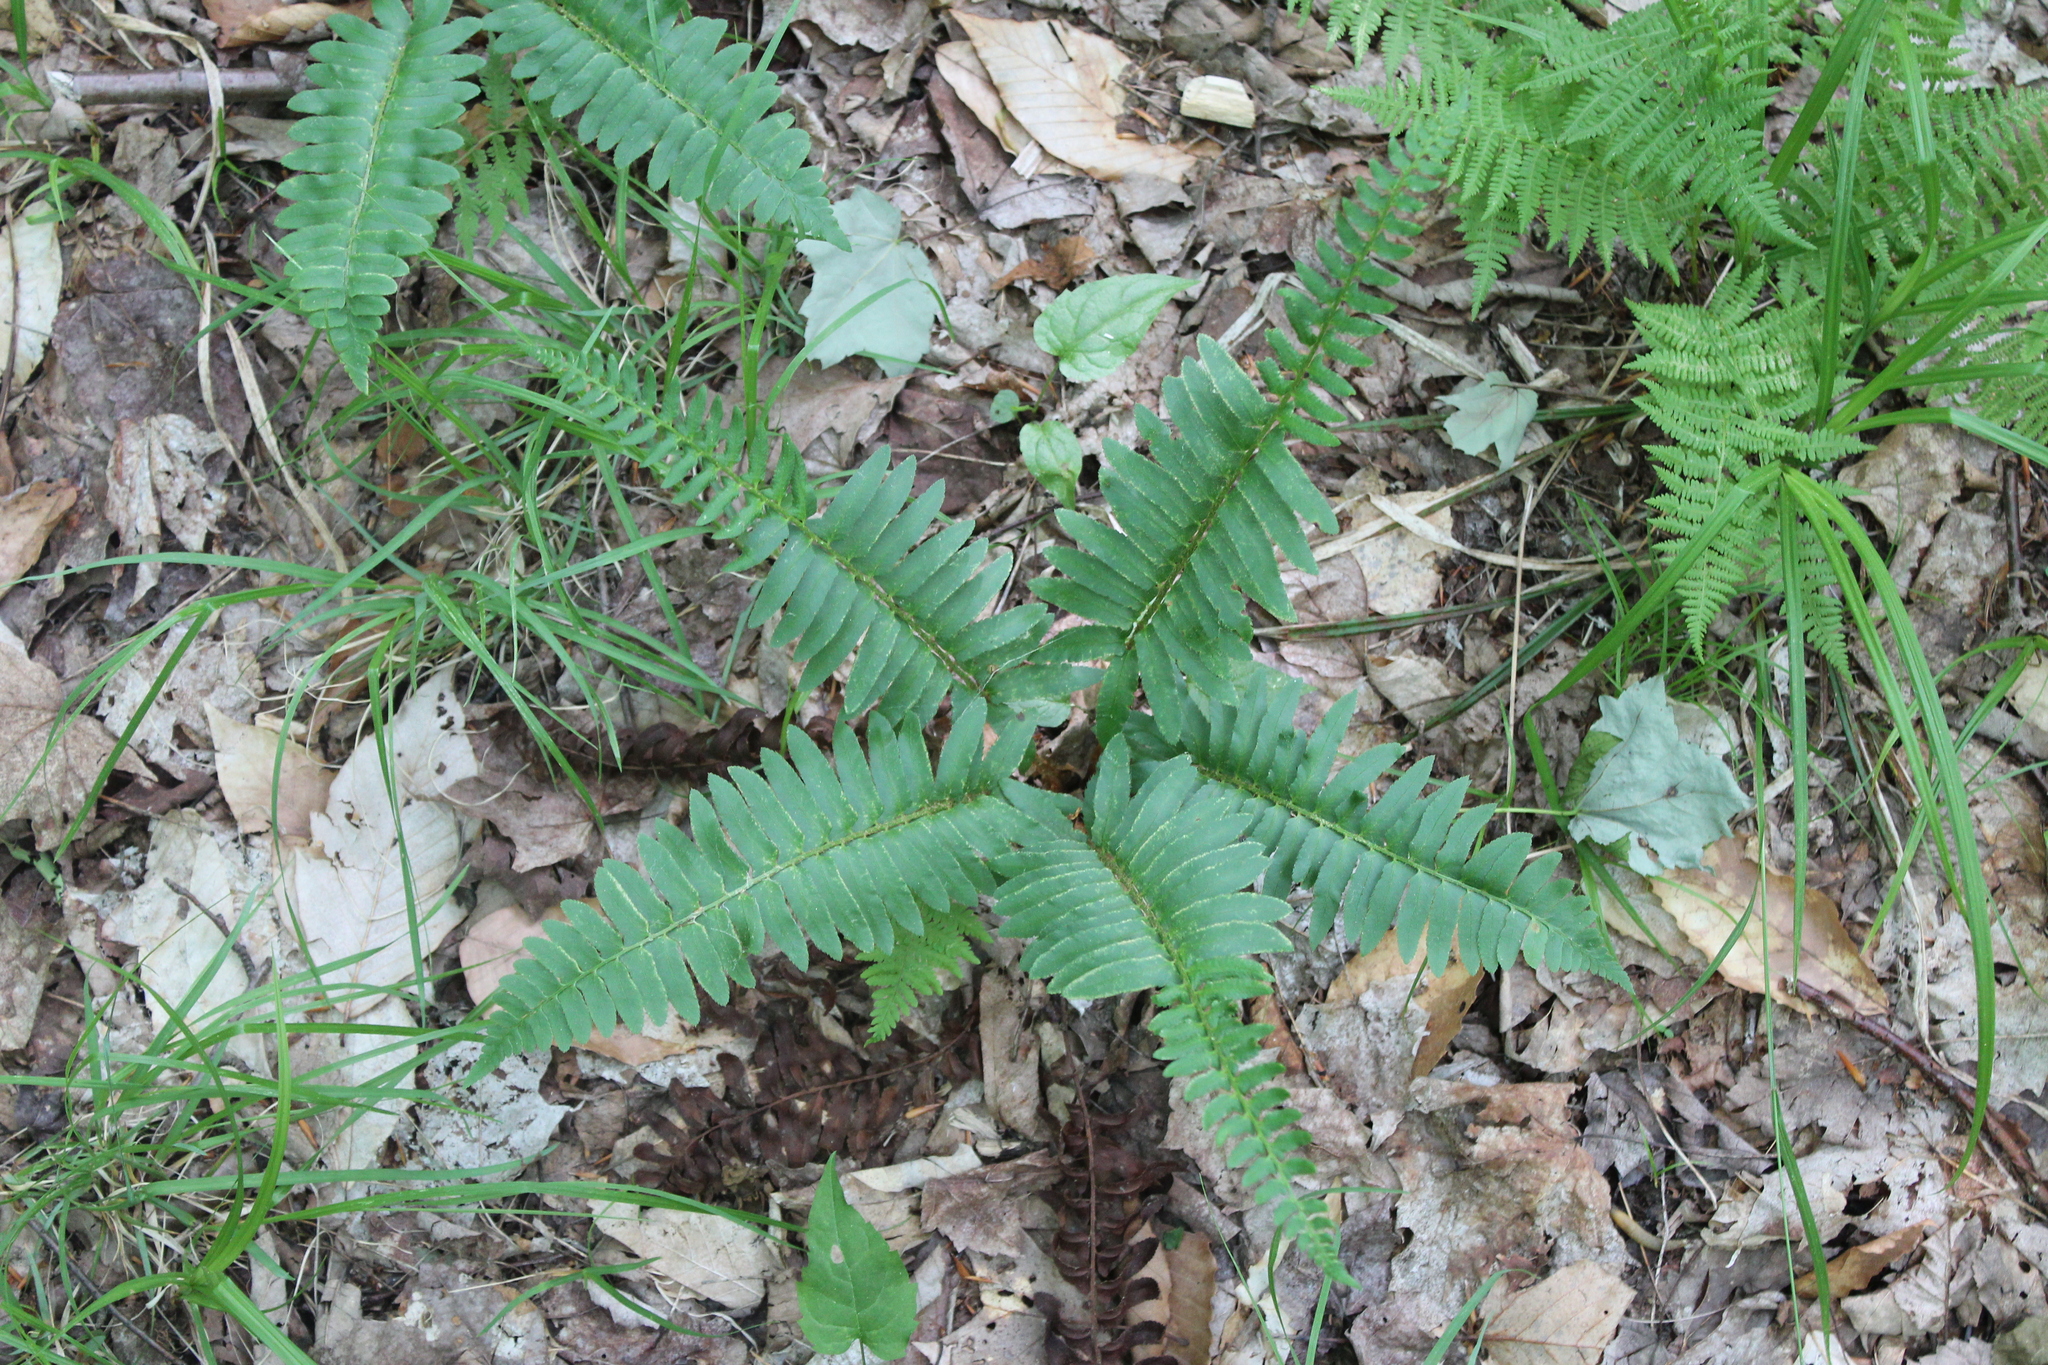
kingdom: Plantae
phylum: Tracheophyta
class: Polypodiopsida
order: Polypodiales
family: Dryopteridaceae
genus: Polystichum
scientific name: Polystichum acrostichoides
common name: Christmas fern
